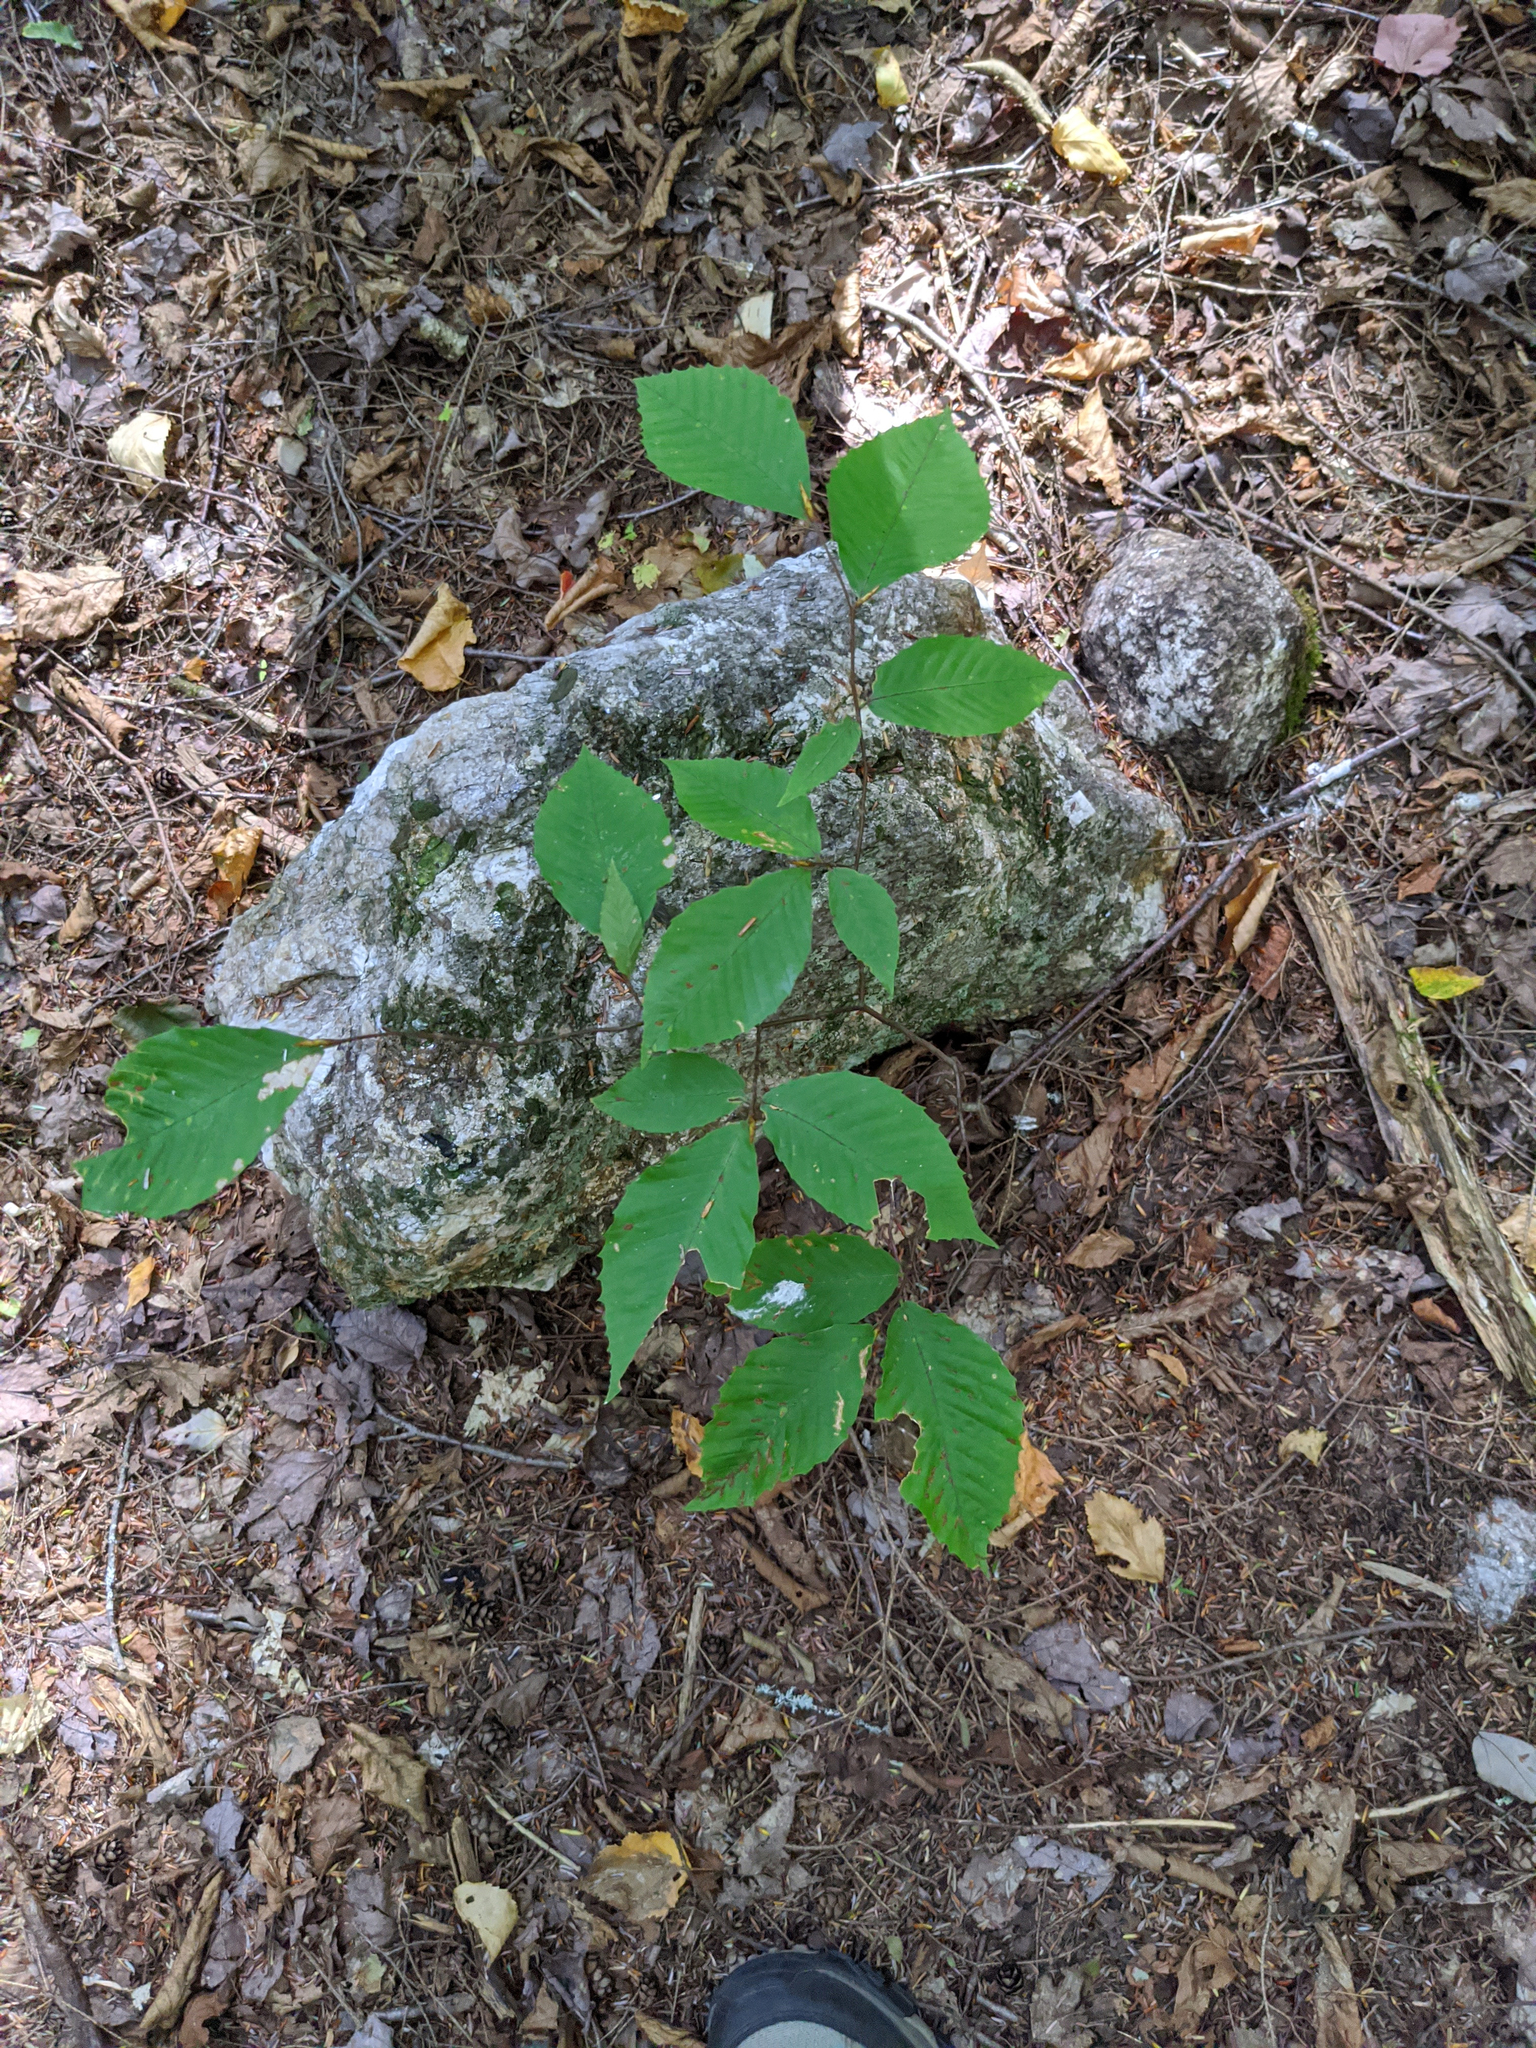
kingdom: Plantae
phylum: Tracheophyta
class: Magnoliopsida
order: Fagales
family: Fagaceae
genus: Fagus
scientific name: Fagus grandifolia
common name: American beech
